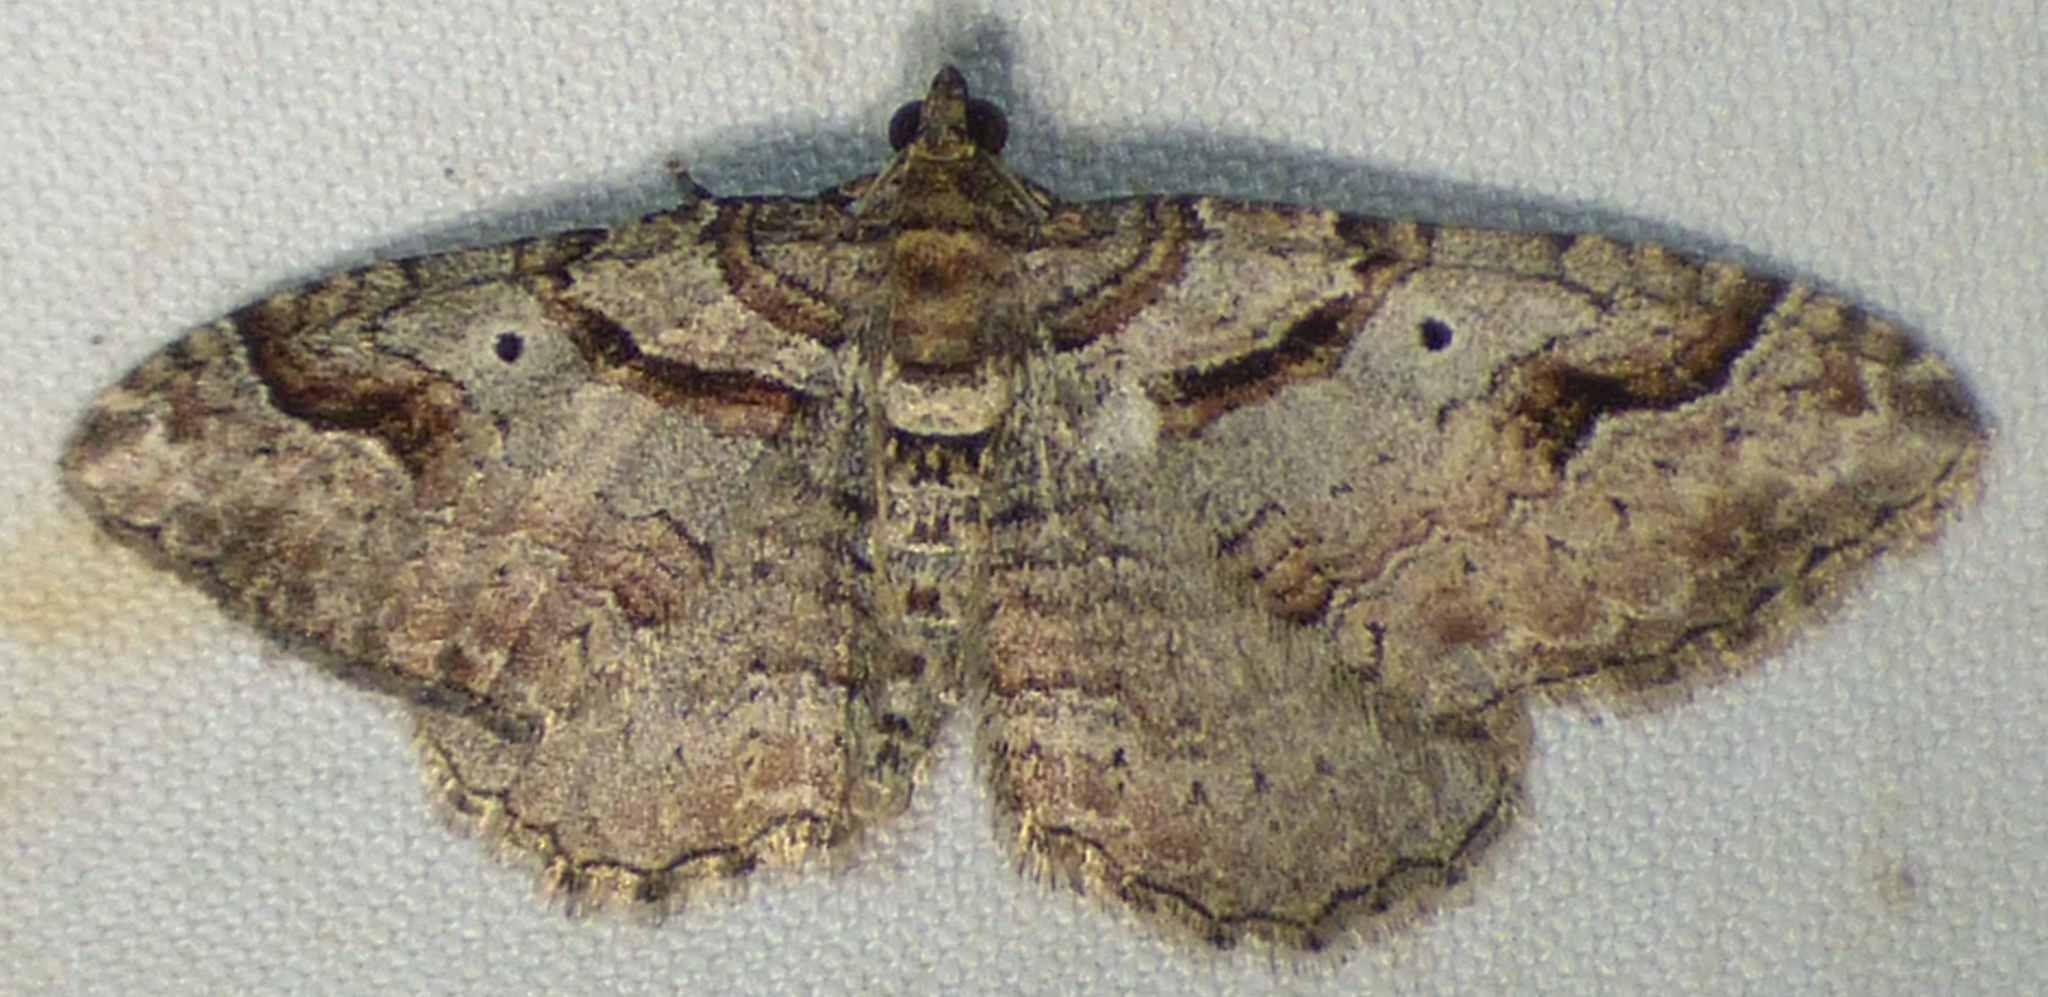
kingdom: Animalia
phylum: Arthropoda
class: Insecta
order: Lepidoptera
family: Geometridae
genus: Costaconvexa
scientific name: Costaconvexa centrostrigaria
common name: Bent-line carpet
